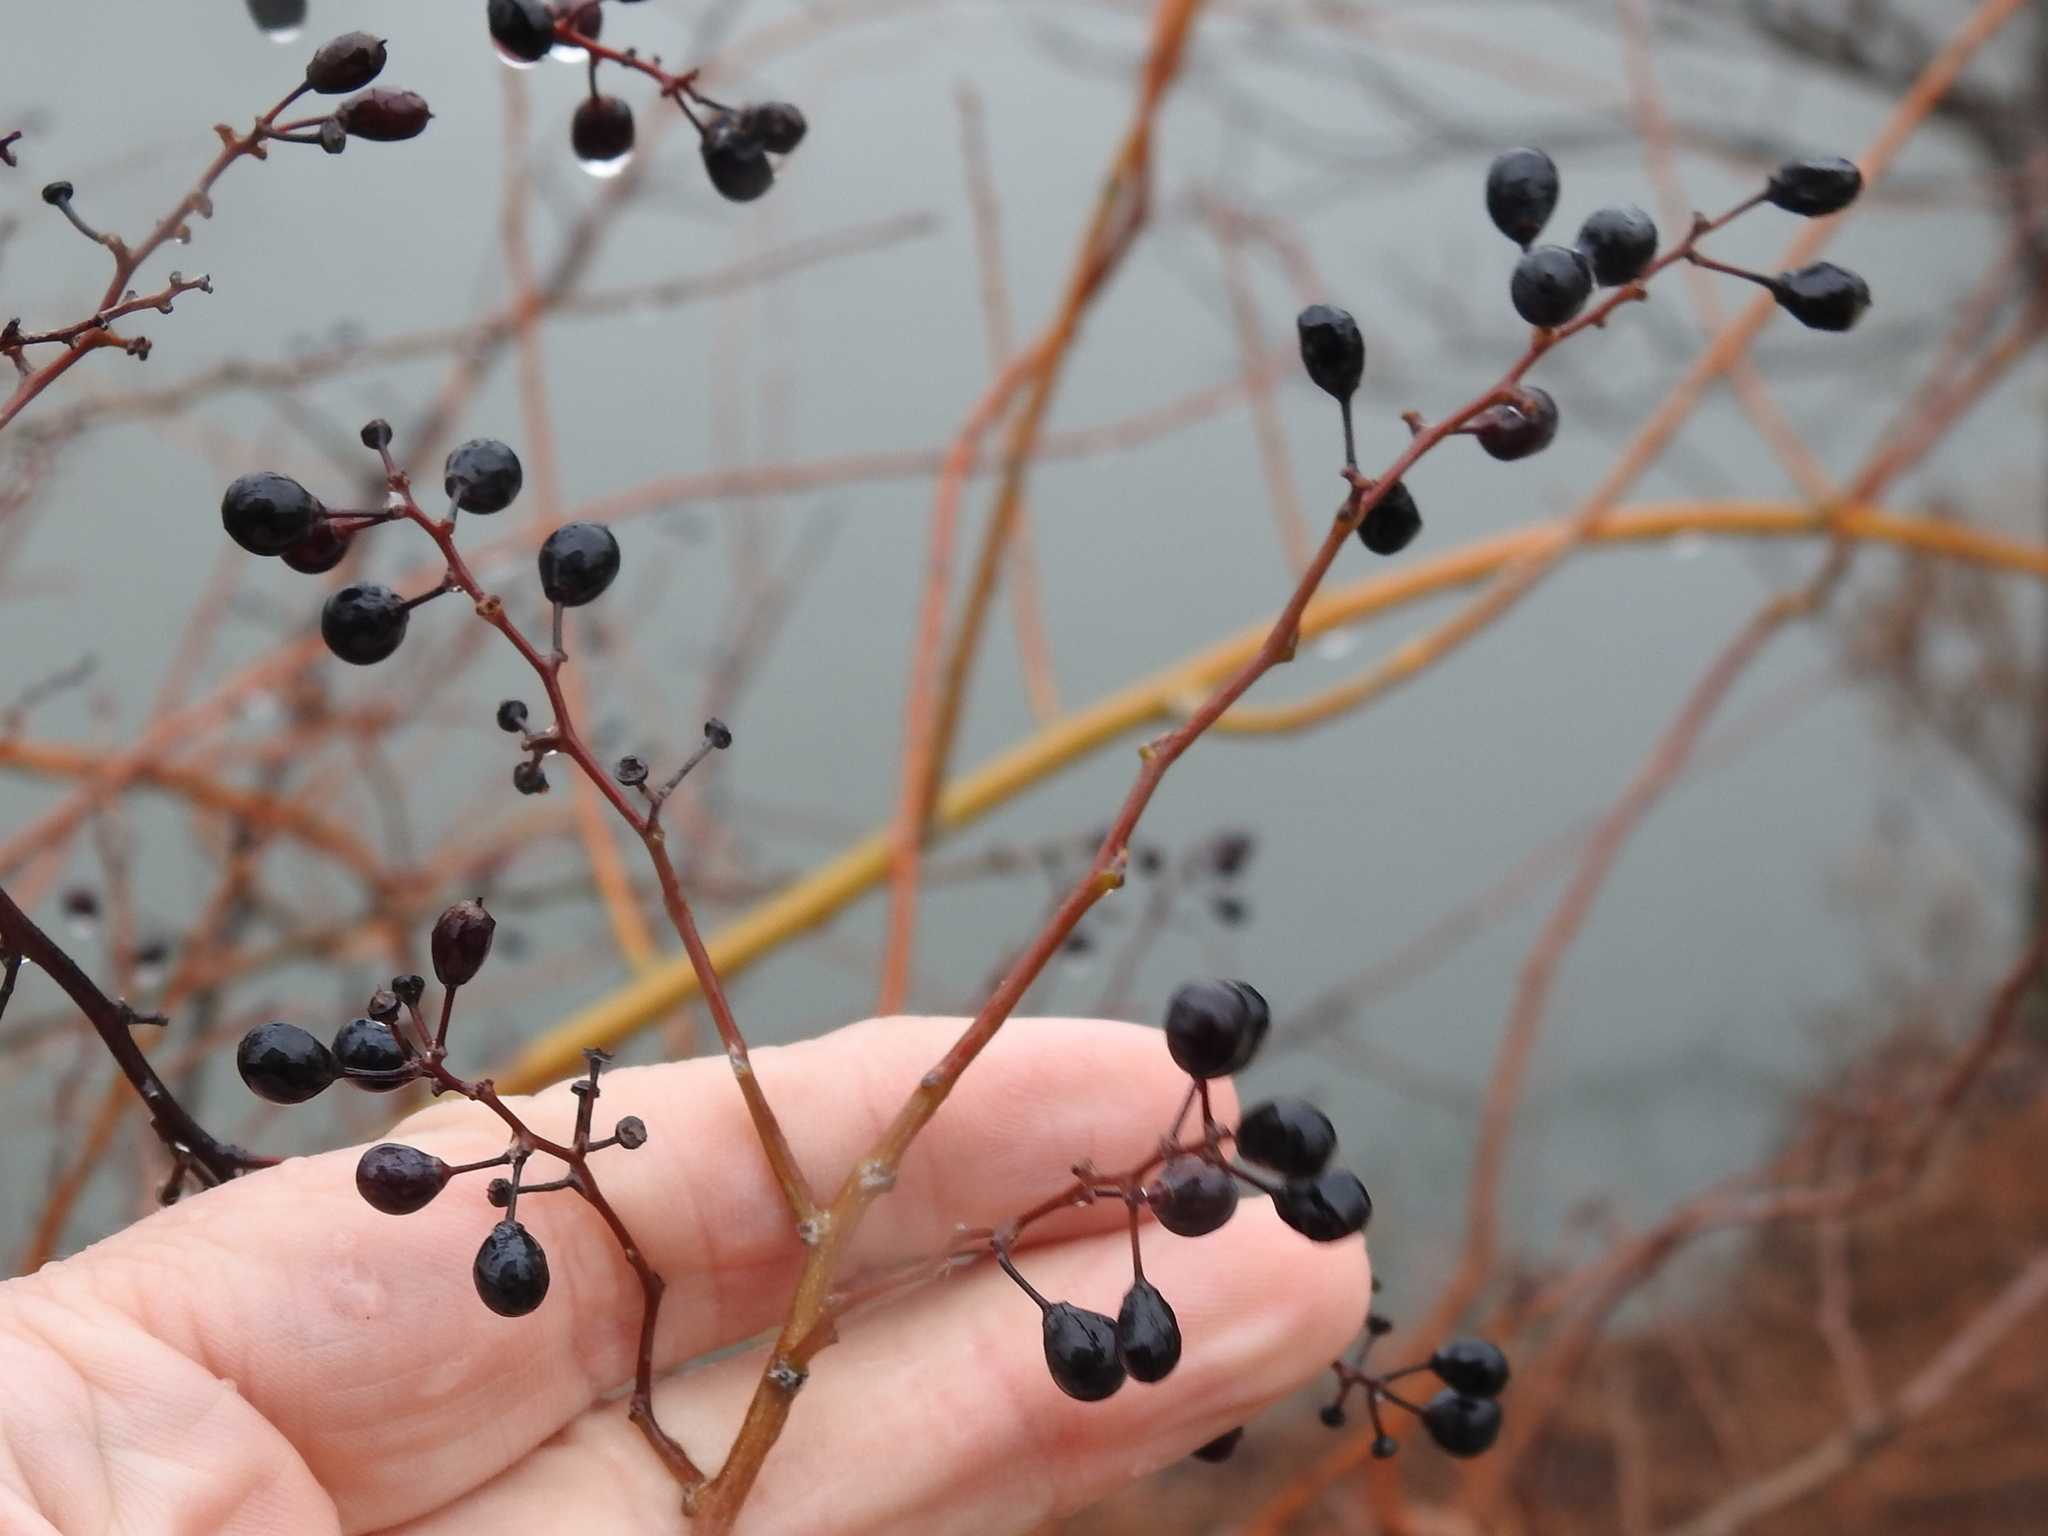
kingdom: Plantae
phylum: Tracheophyta
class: Magnoliopsida
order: Rosales
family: Rhamnaceae
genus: Berchemia
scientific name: Berchemia scandens
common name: Supplejack
